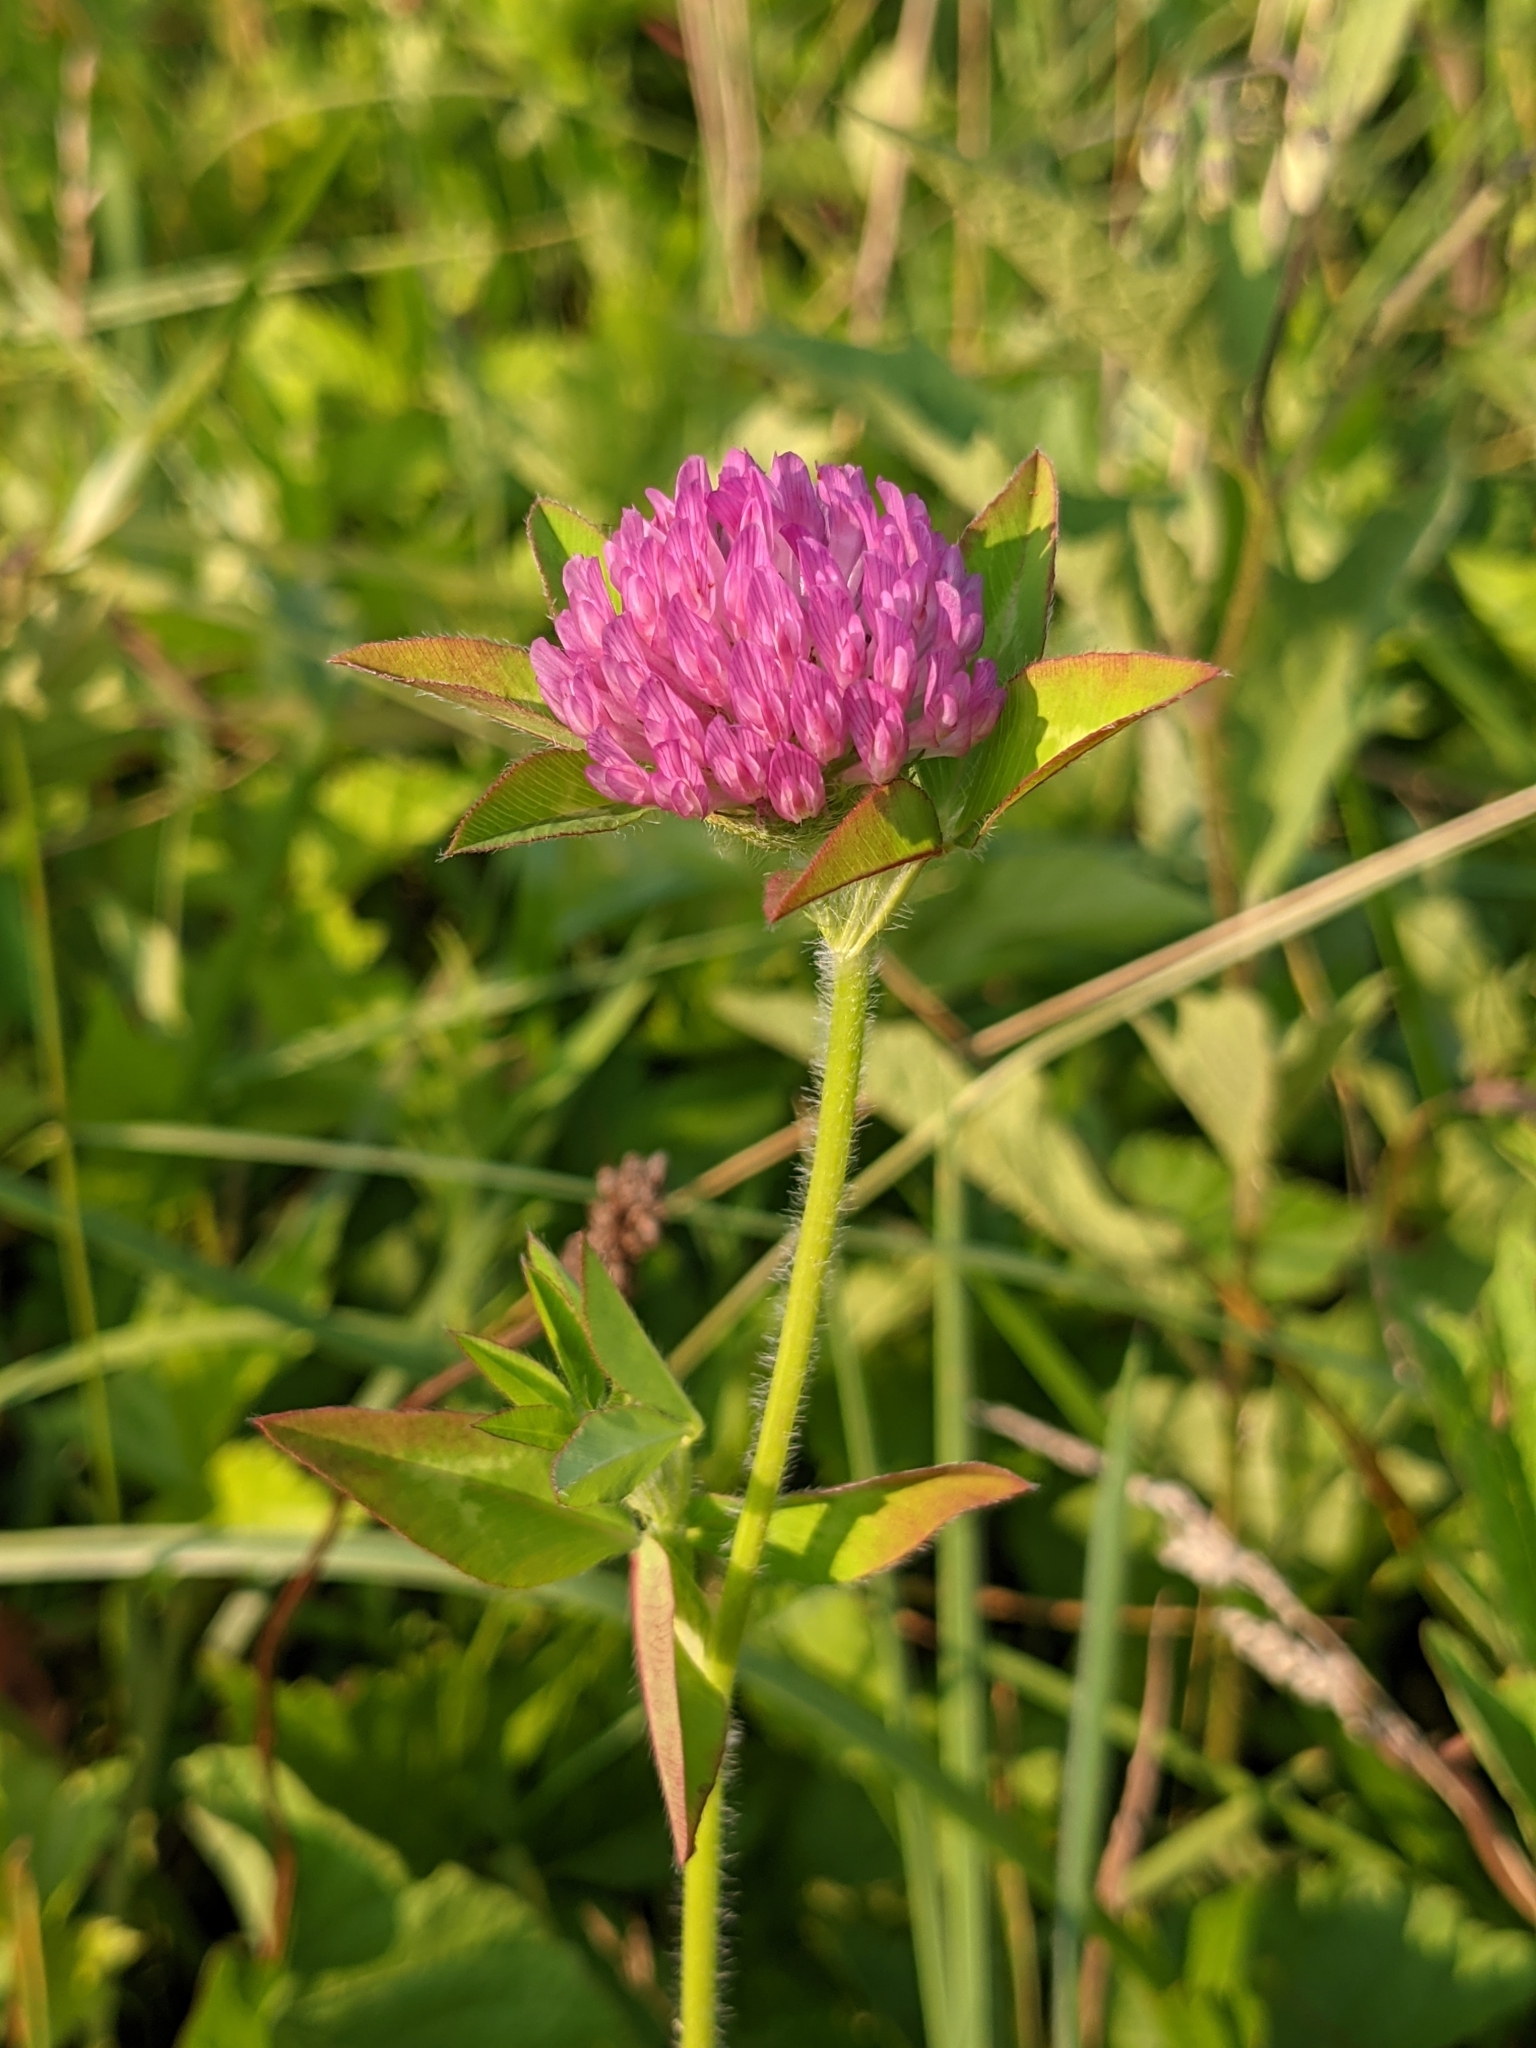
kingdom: Plantae
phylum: Tracheophyta
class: Magnoliopsida
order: Fabales
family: Fabaceae
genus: Trifolium
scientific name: Trifolium pratense
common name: Red clover
